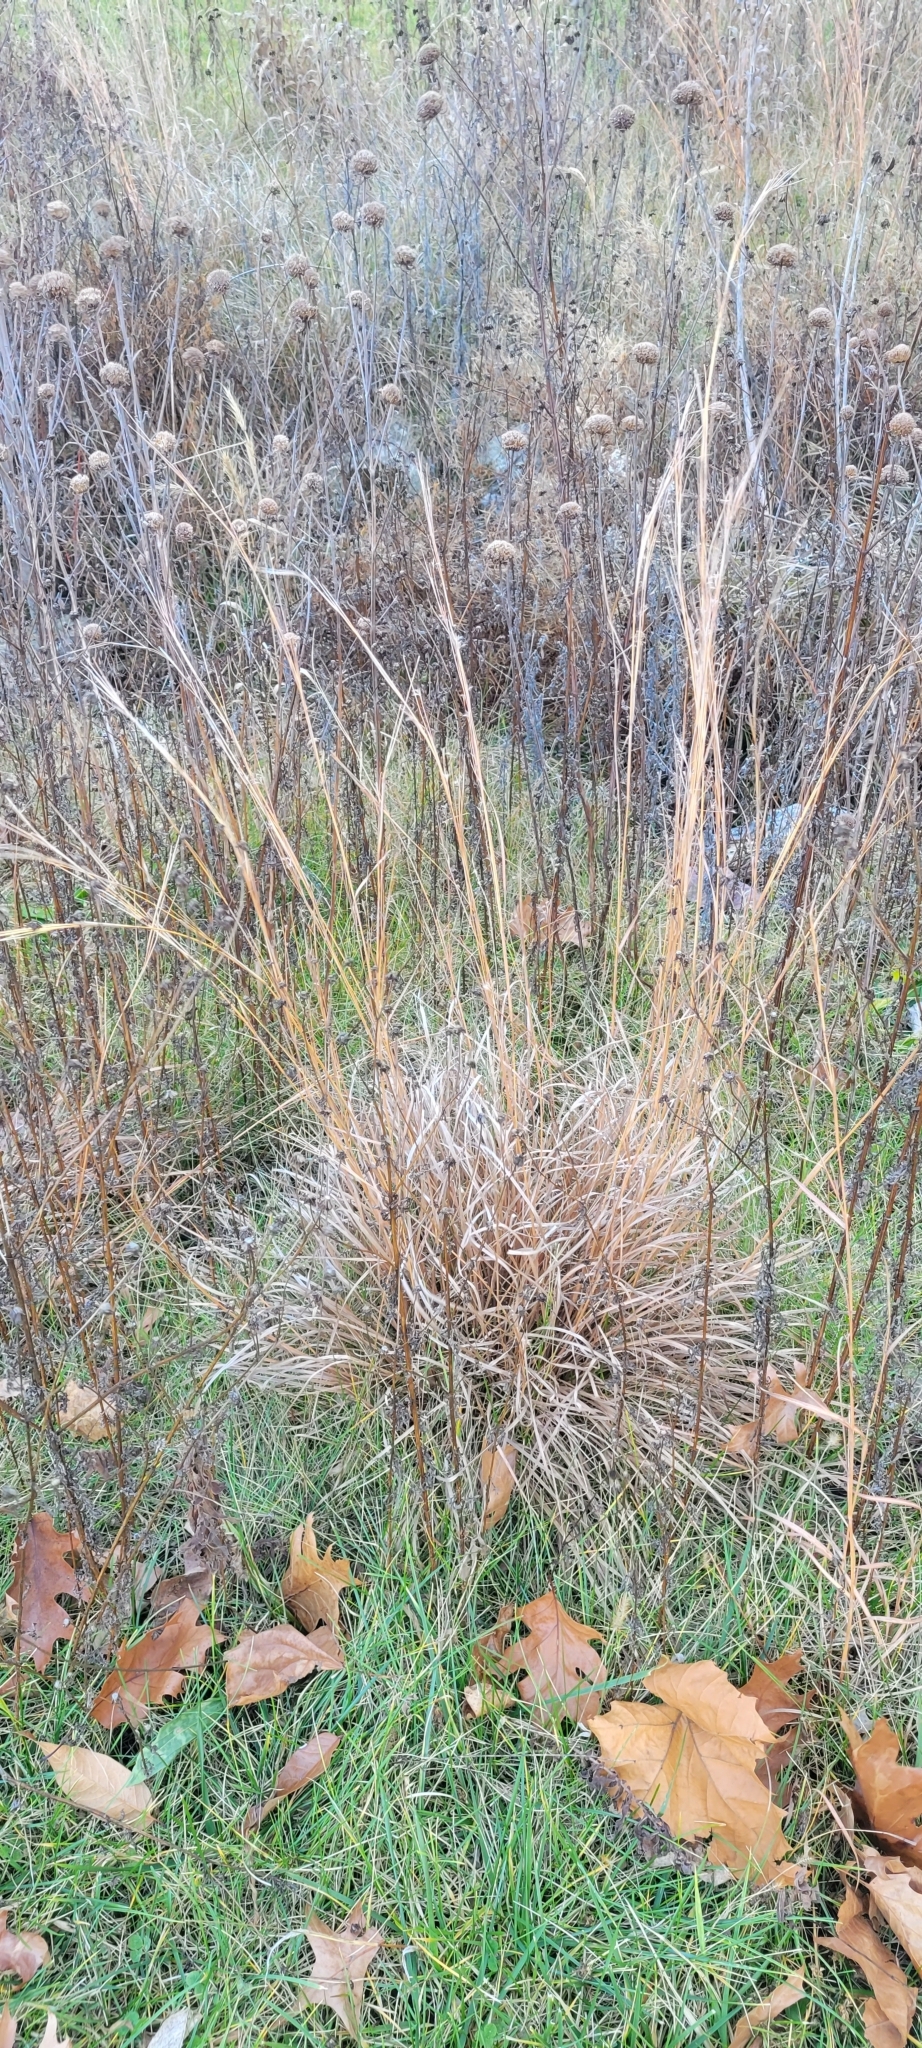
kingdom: Plantae
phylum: Tracheophyta
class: Liliopsida
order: Poales
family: Poaceae
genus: Schizachyrium
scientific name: Schizachyrium scoparium
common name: Little bluestem
